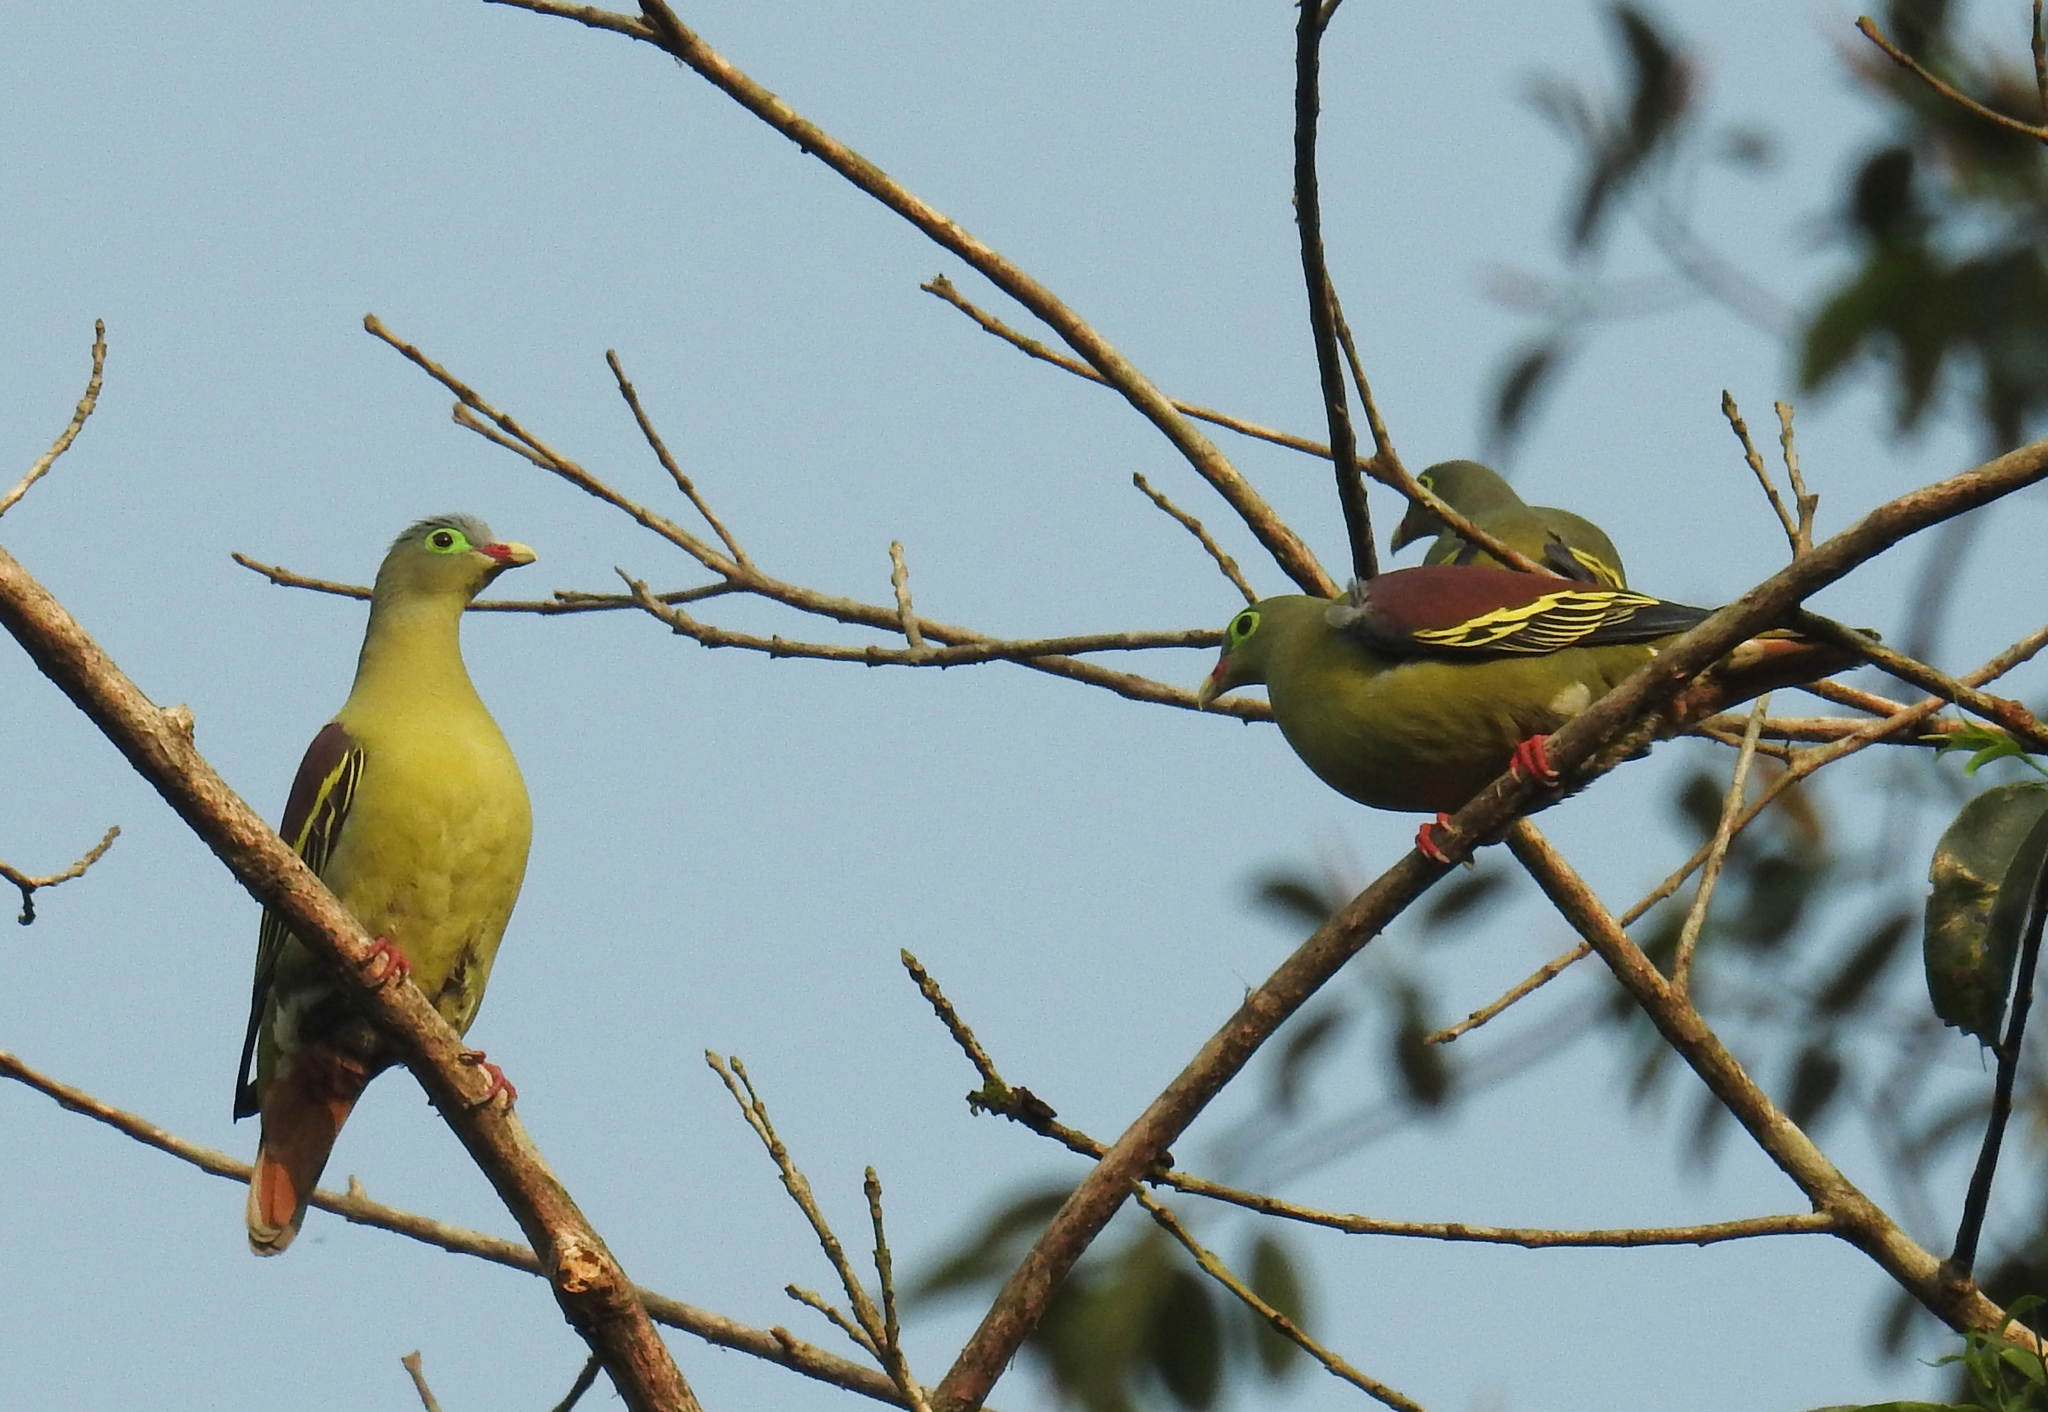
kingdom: Animalia
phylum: Chordata
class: Aves
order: Columbiformes
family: Columbidae
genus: Treron
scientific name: Treron curvirostra
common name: Thick-billed green pigeon
